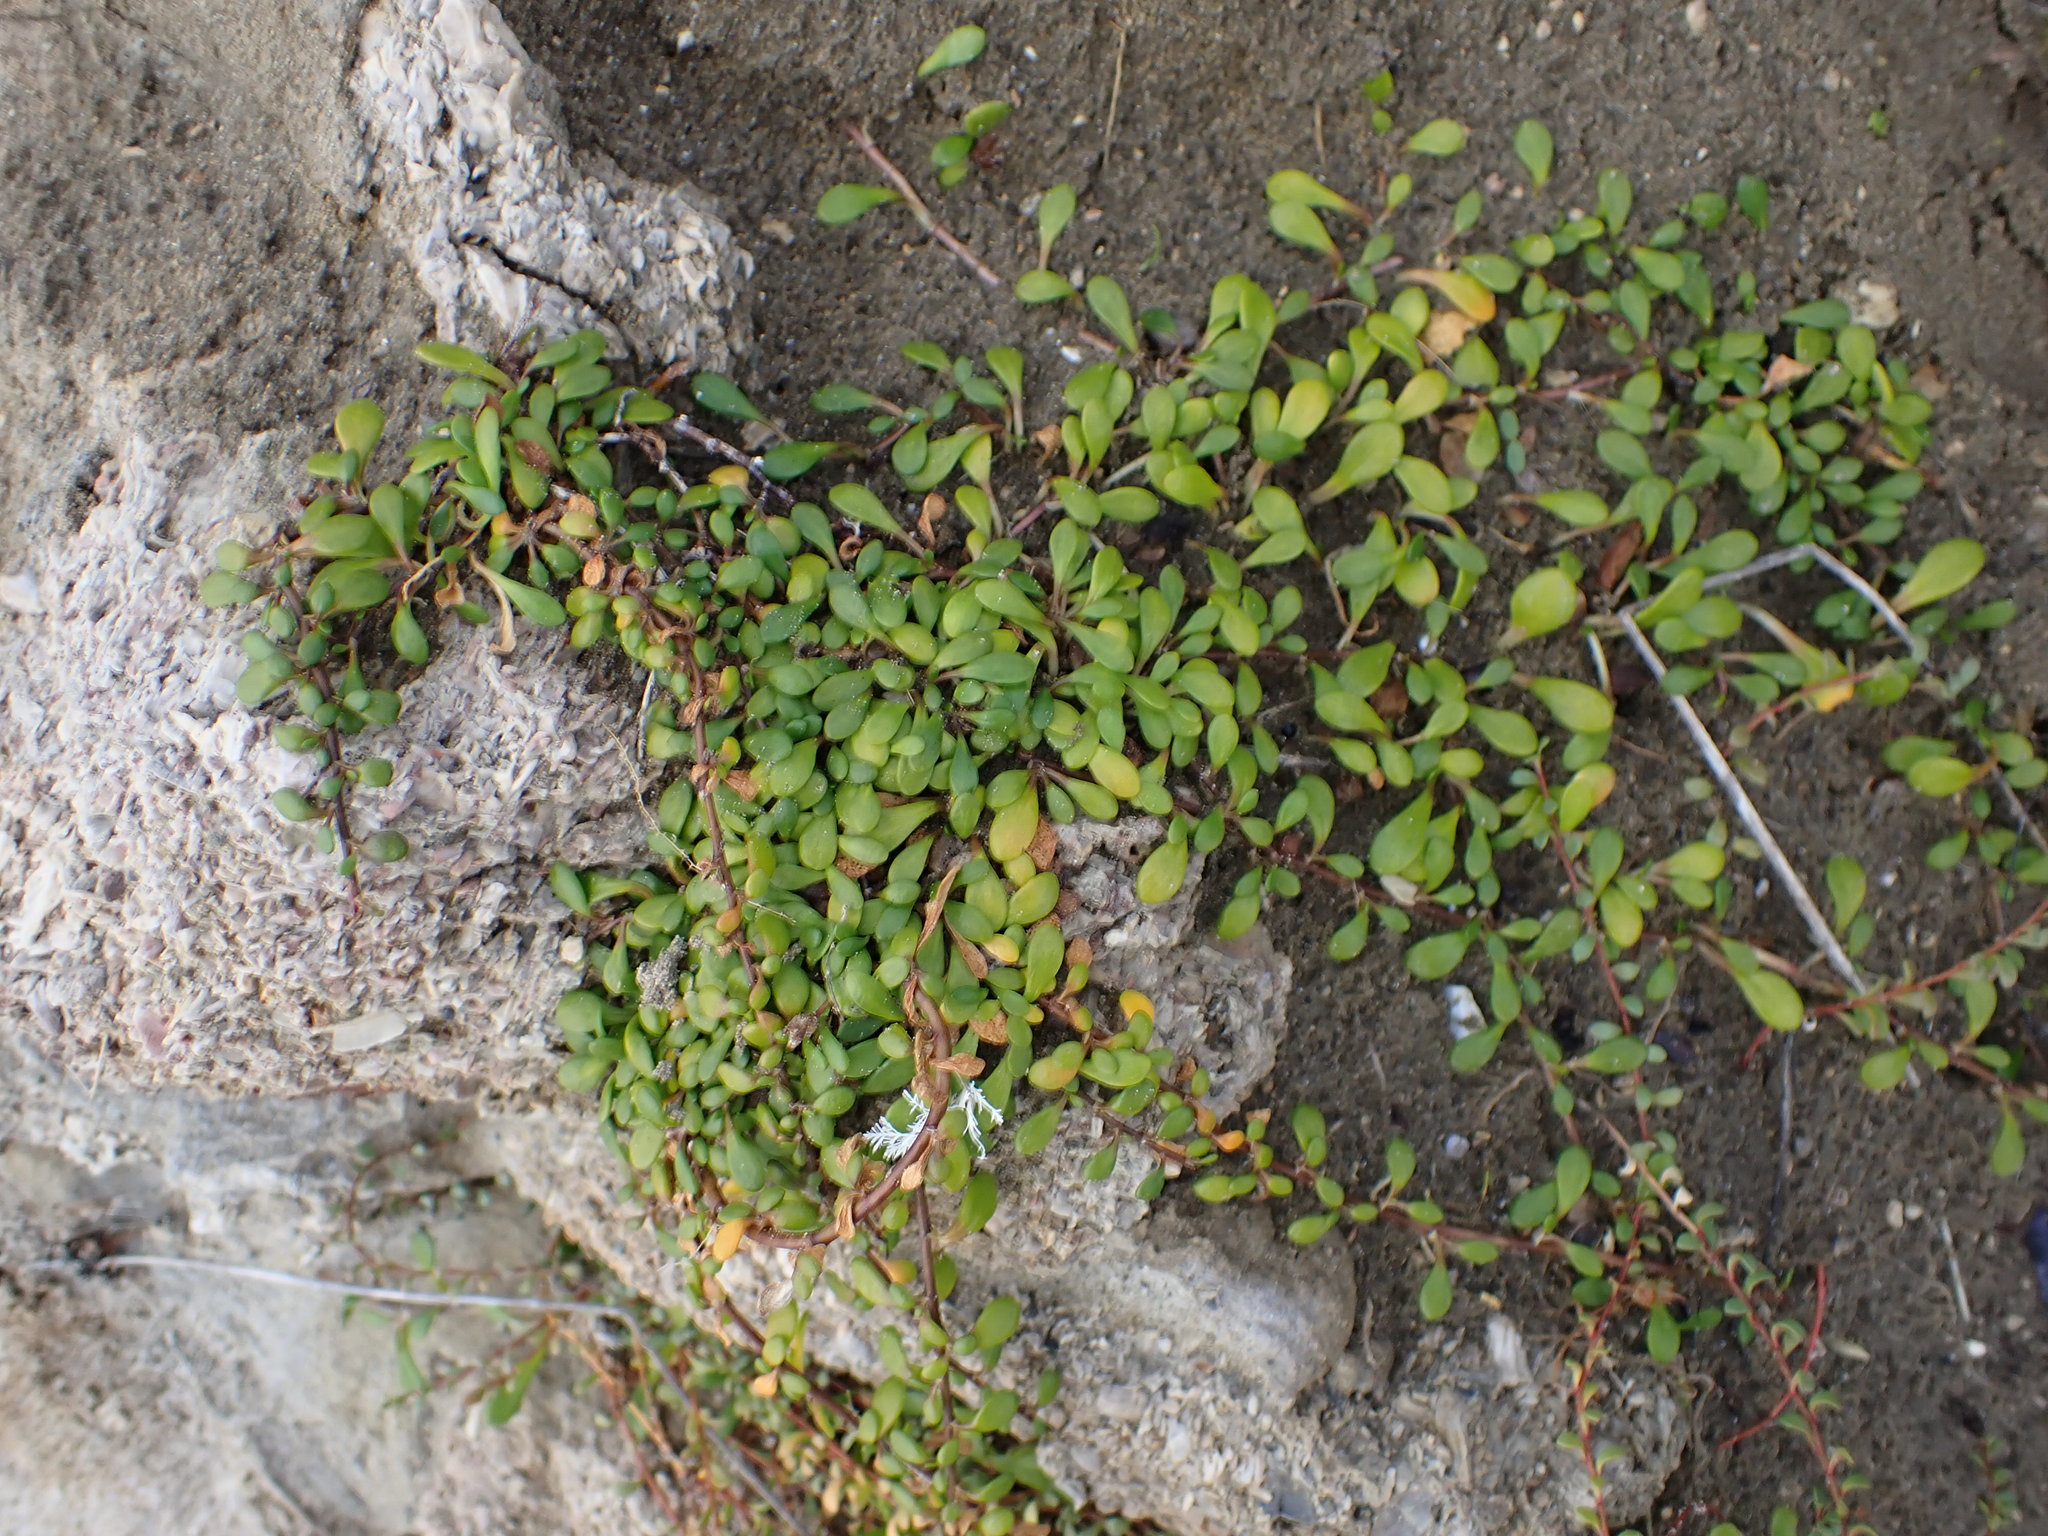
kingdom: Plantae
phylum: Tracheophyta
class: Magnoliopsida
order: Asterales
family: Goodeniaceae
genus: Goodenia
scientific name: Goodenia radicans
